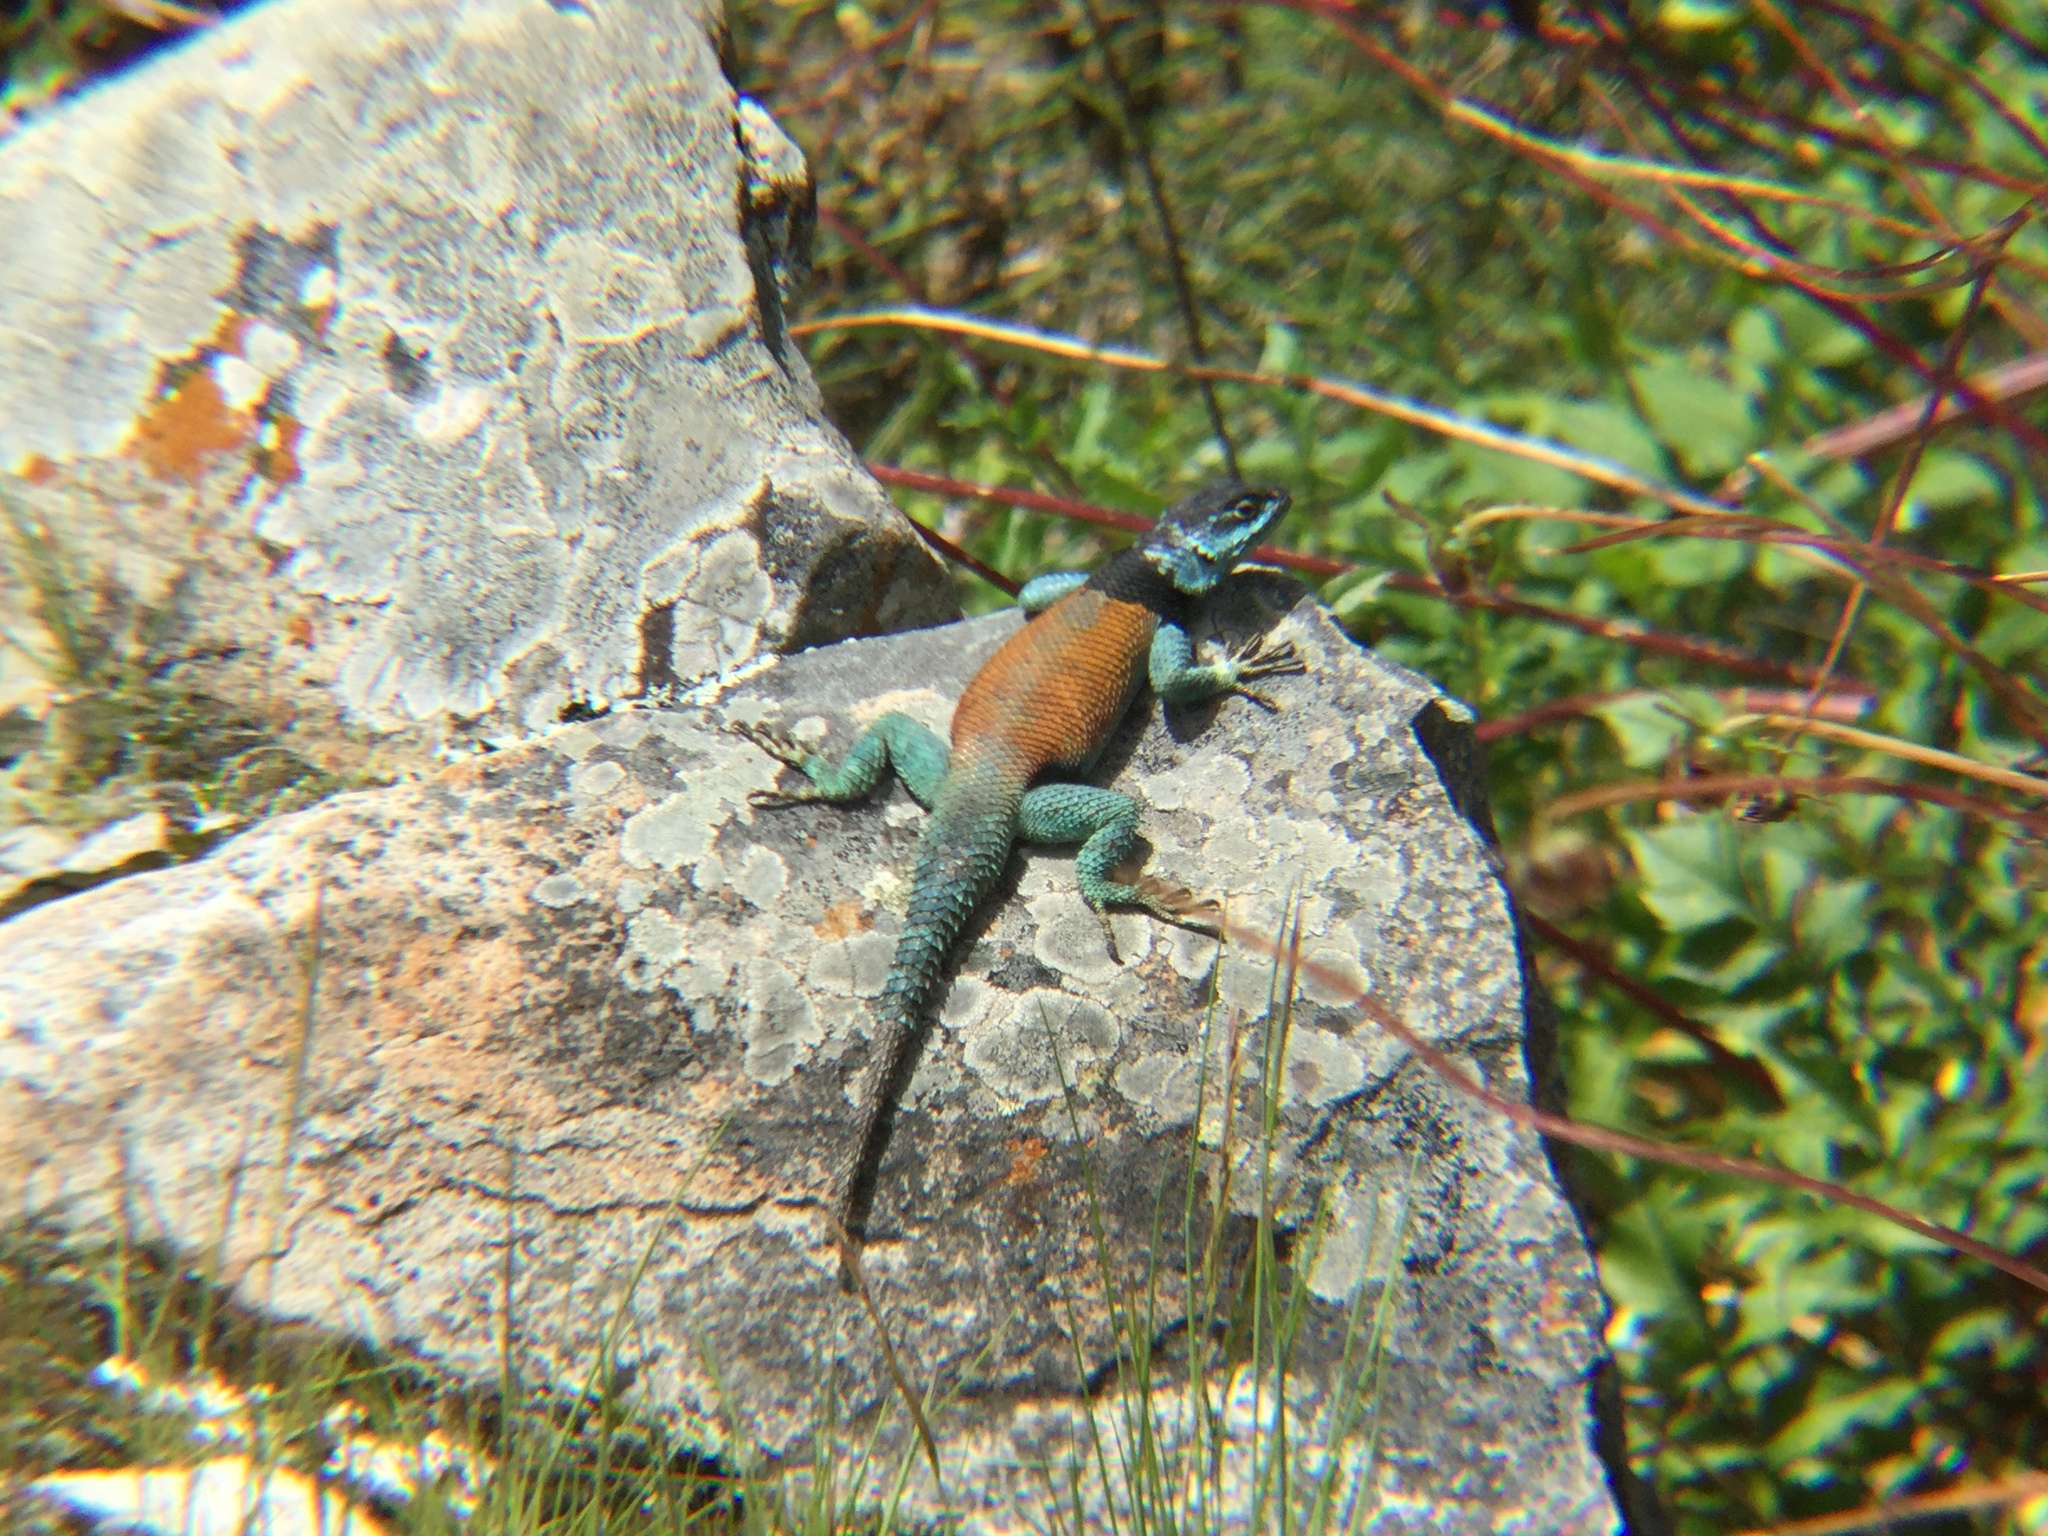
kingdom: Animalia
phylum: Chordata
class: Squamata
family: Phrynosomatidae
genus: Sceloporus
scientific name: Sceloporus minor
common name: Minor lizard
